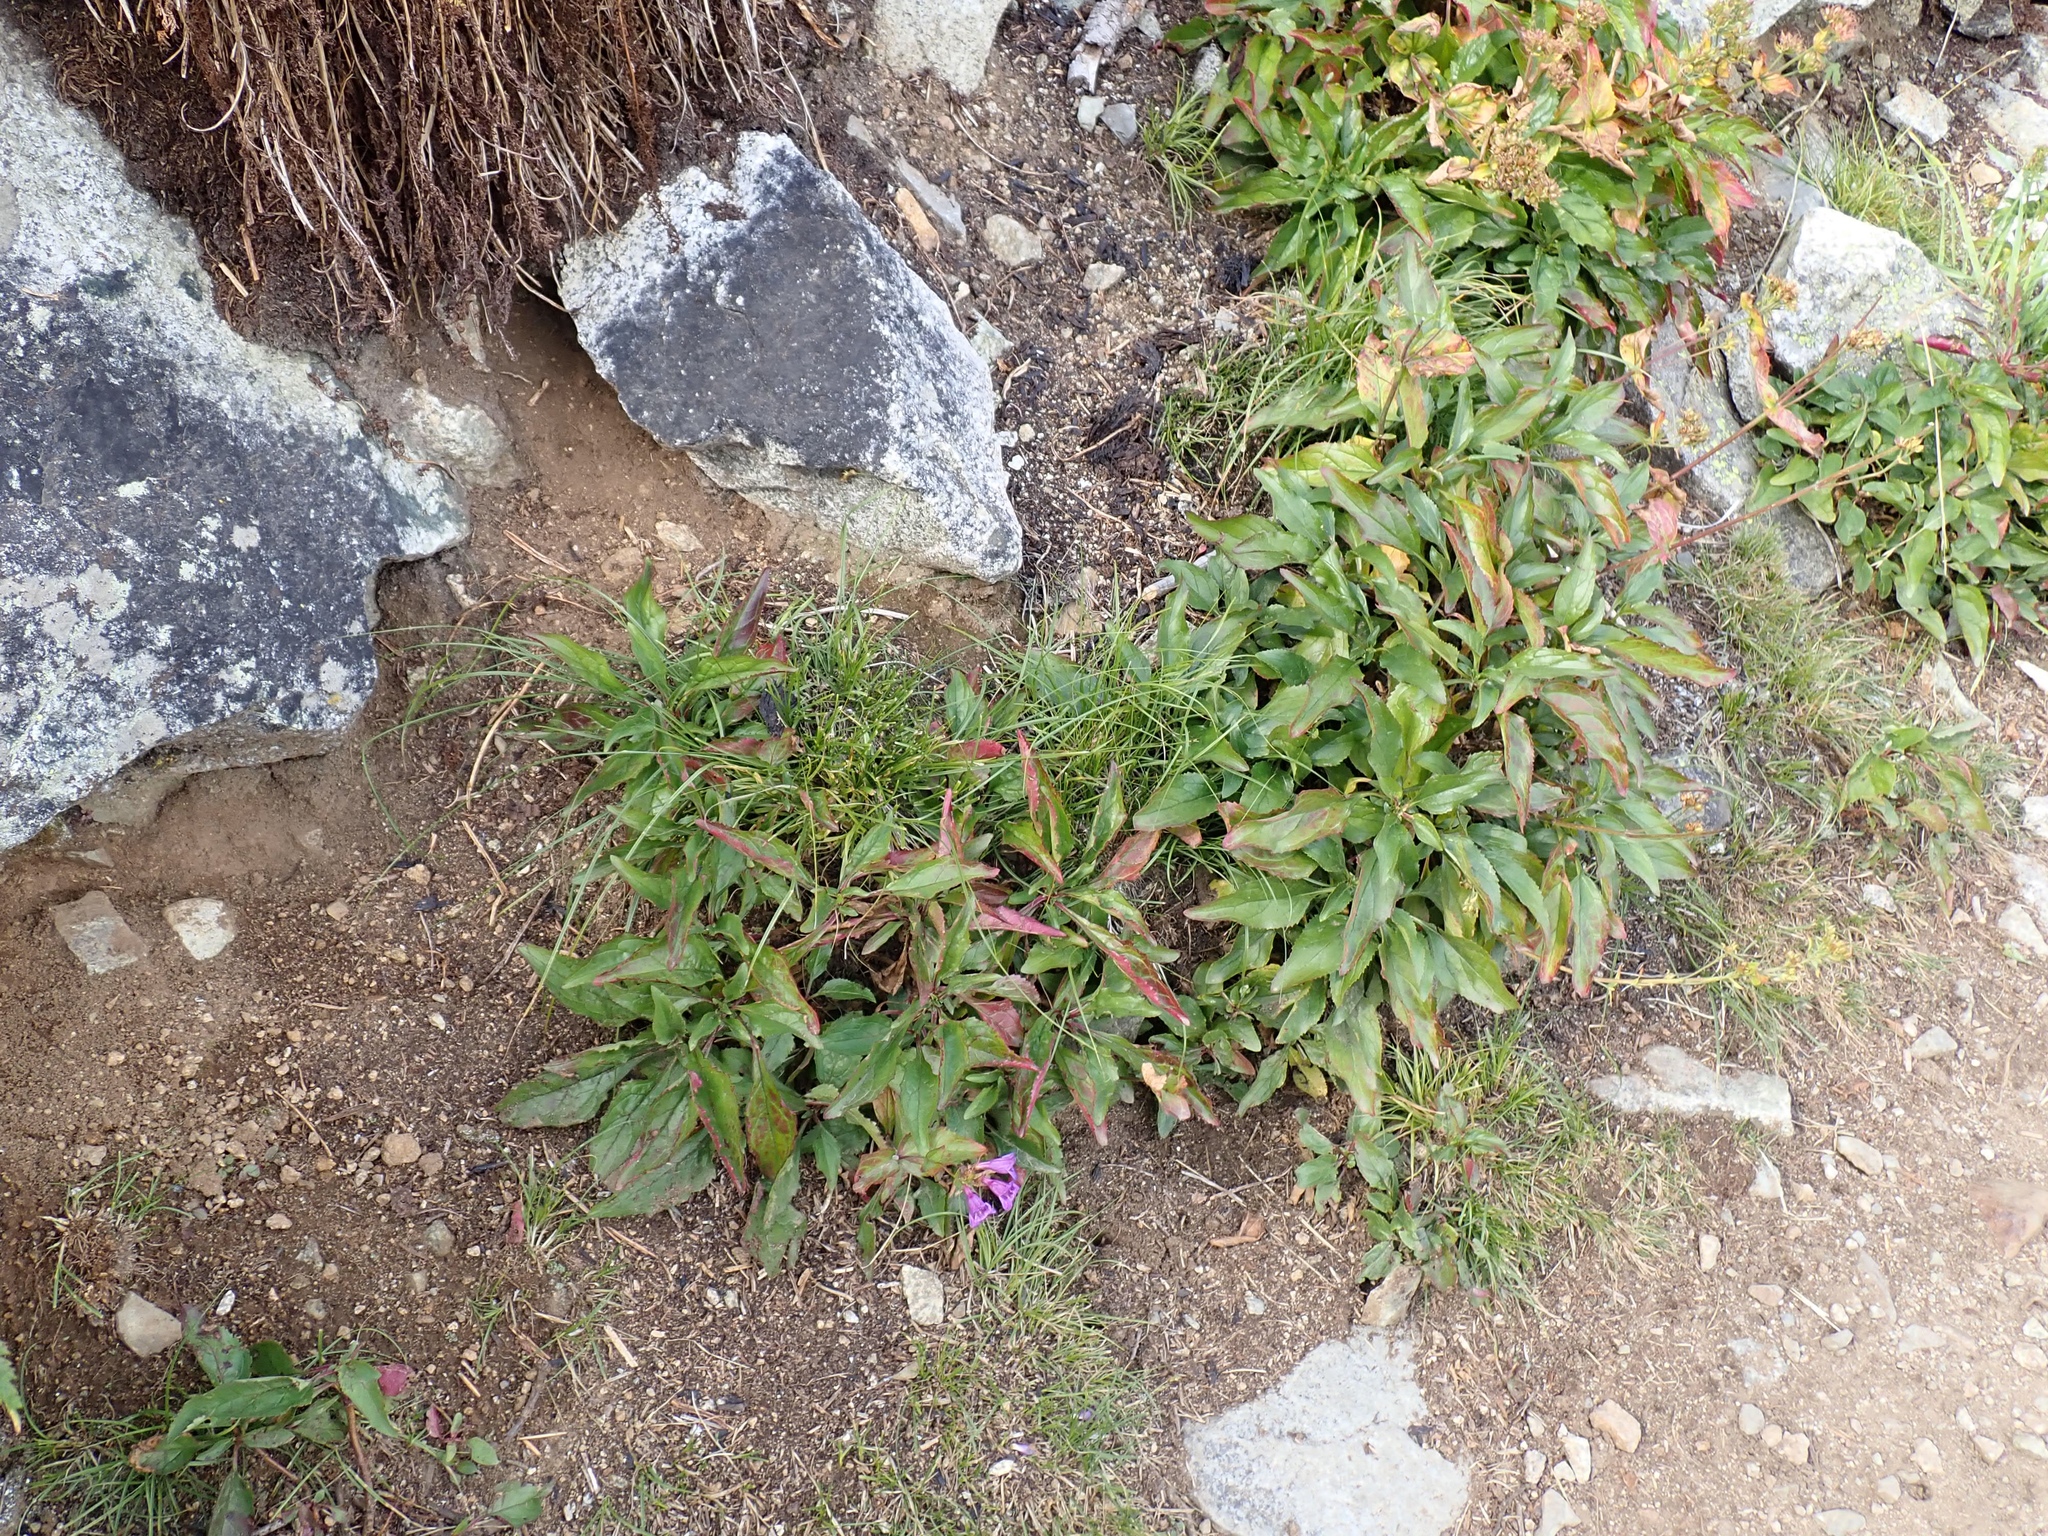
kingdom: Plantae
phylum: Tracheophyta
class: Magnoliopsida
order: Lamiales
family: Plantaginaceae
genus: Penstemon
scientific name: Penstemon serrulatus
